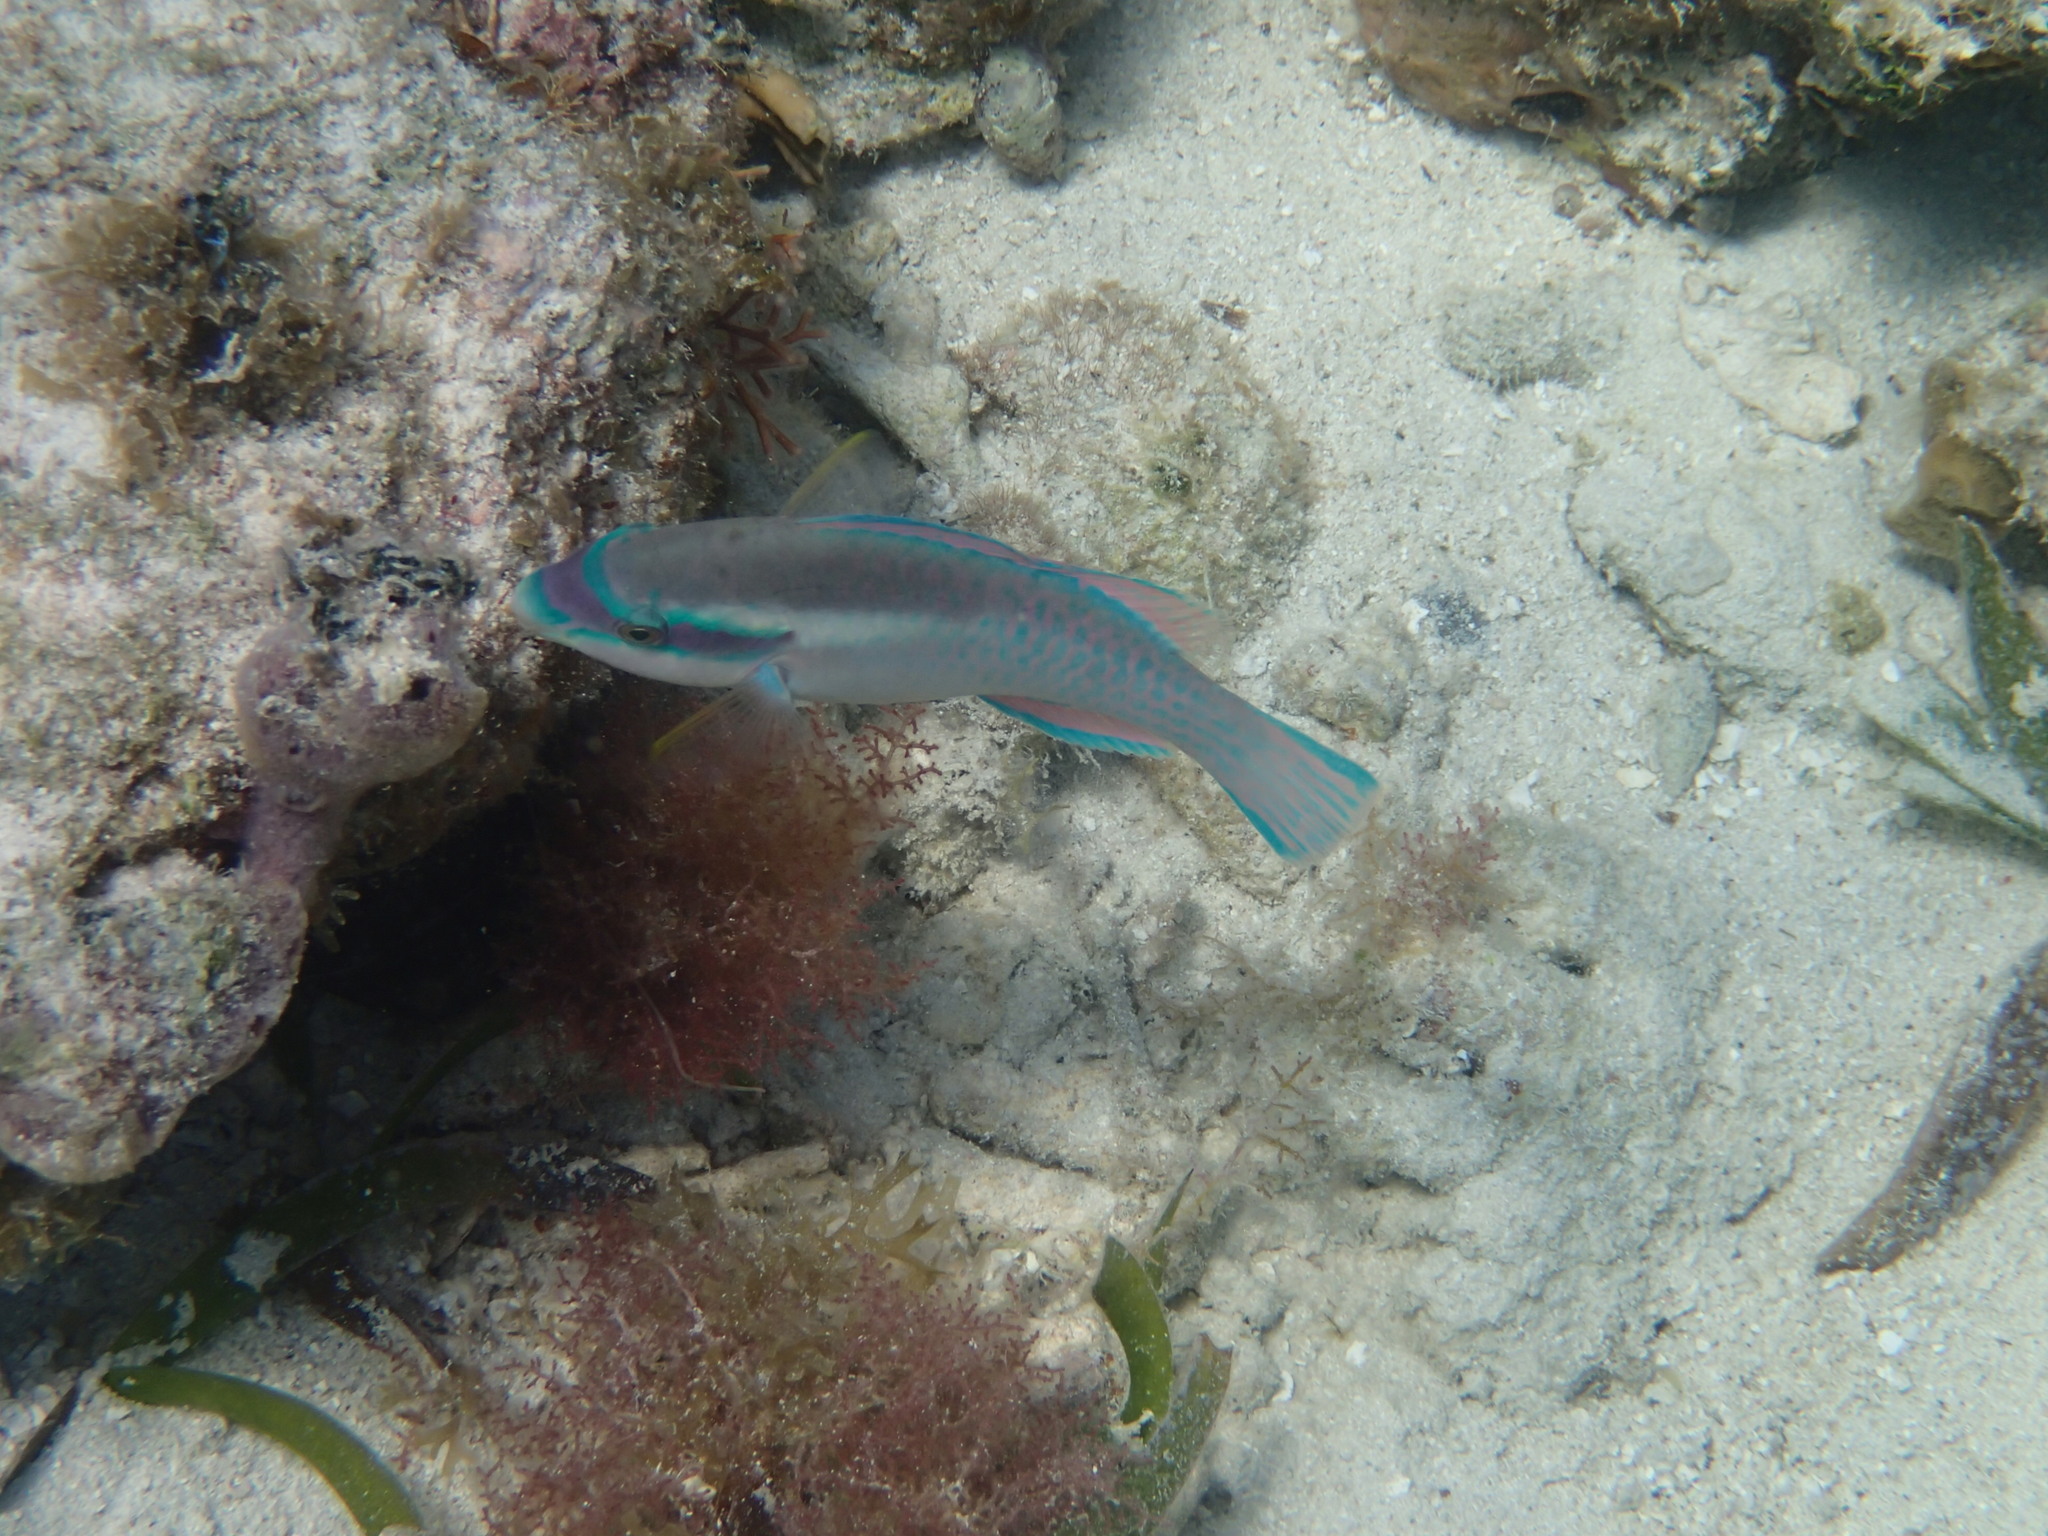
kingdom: Animalia
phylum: Chordata
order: Perciformes
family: Scaridae
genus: Scarus
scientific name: Scarus iseri
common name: Striped parrotfish
